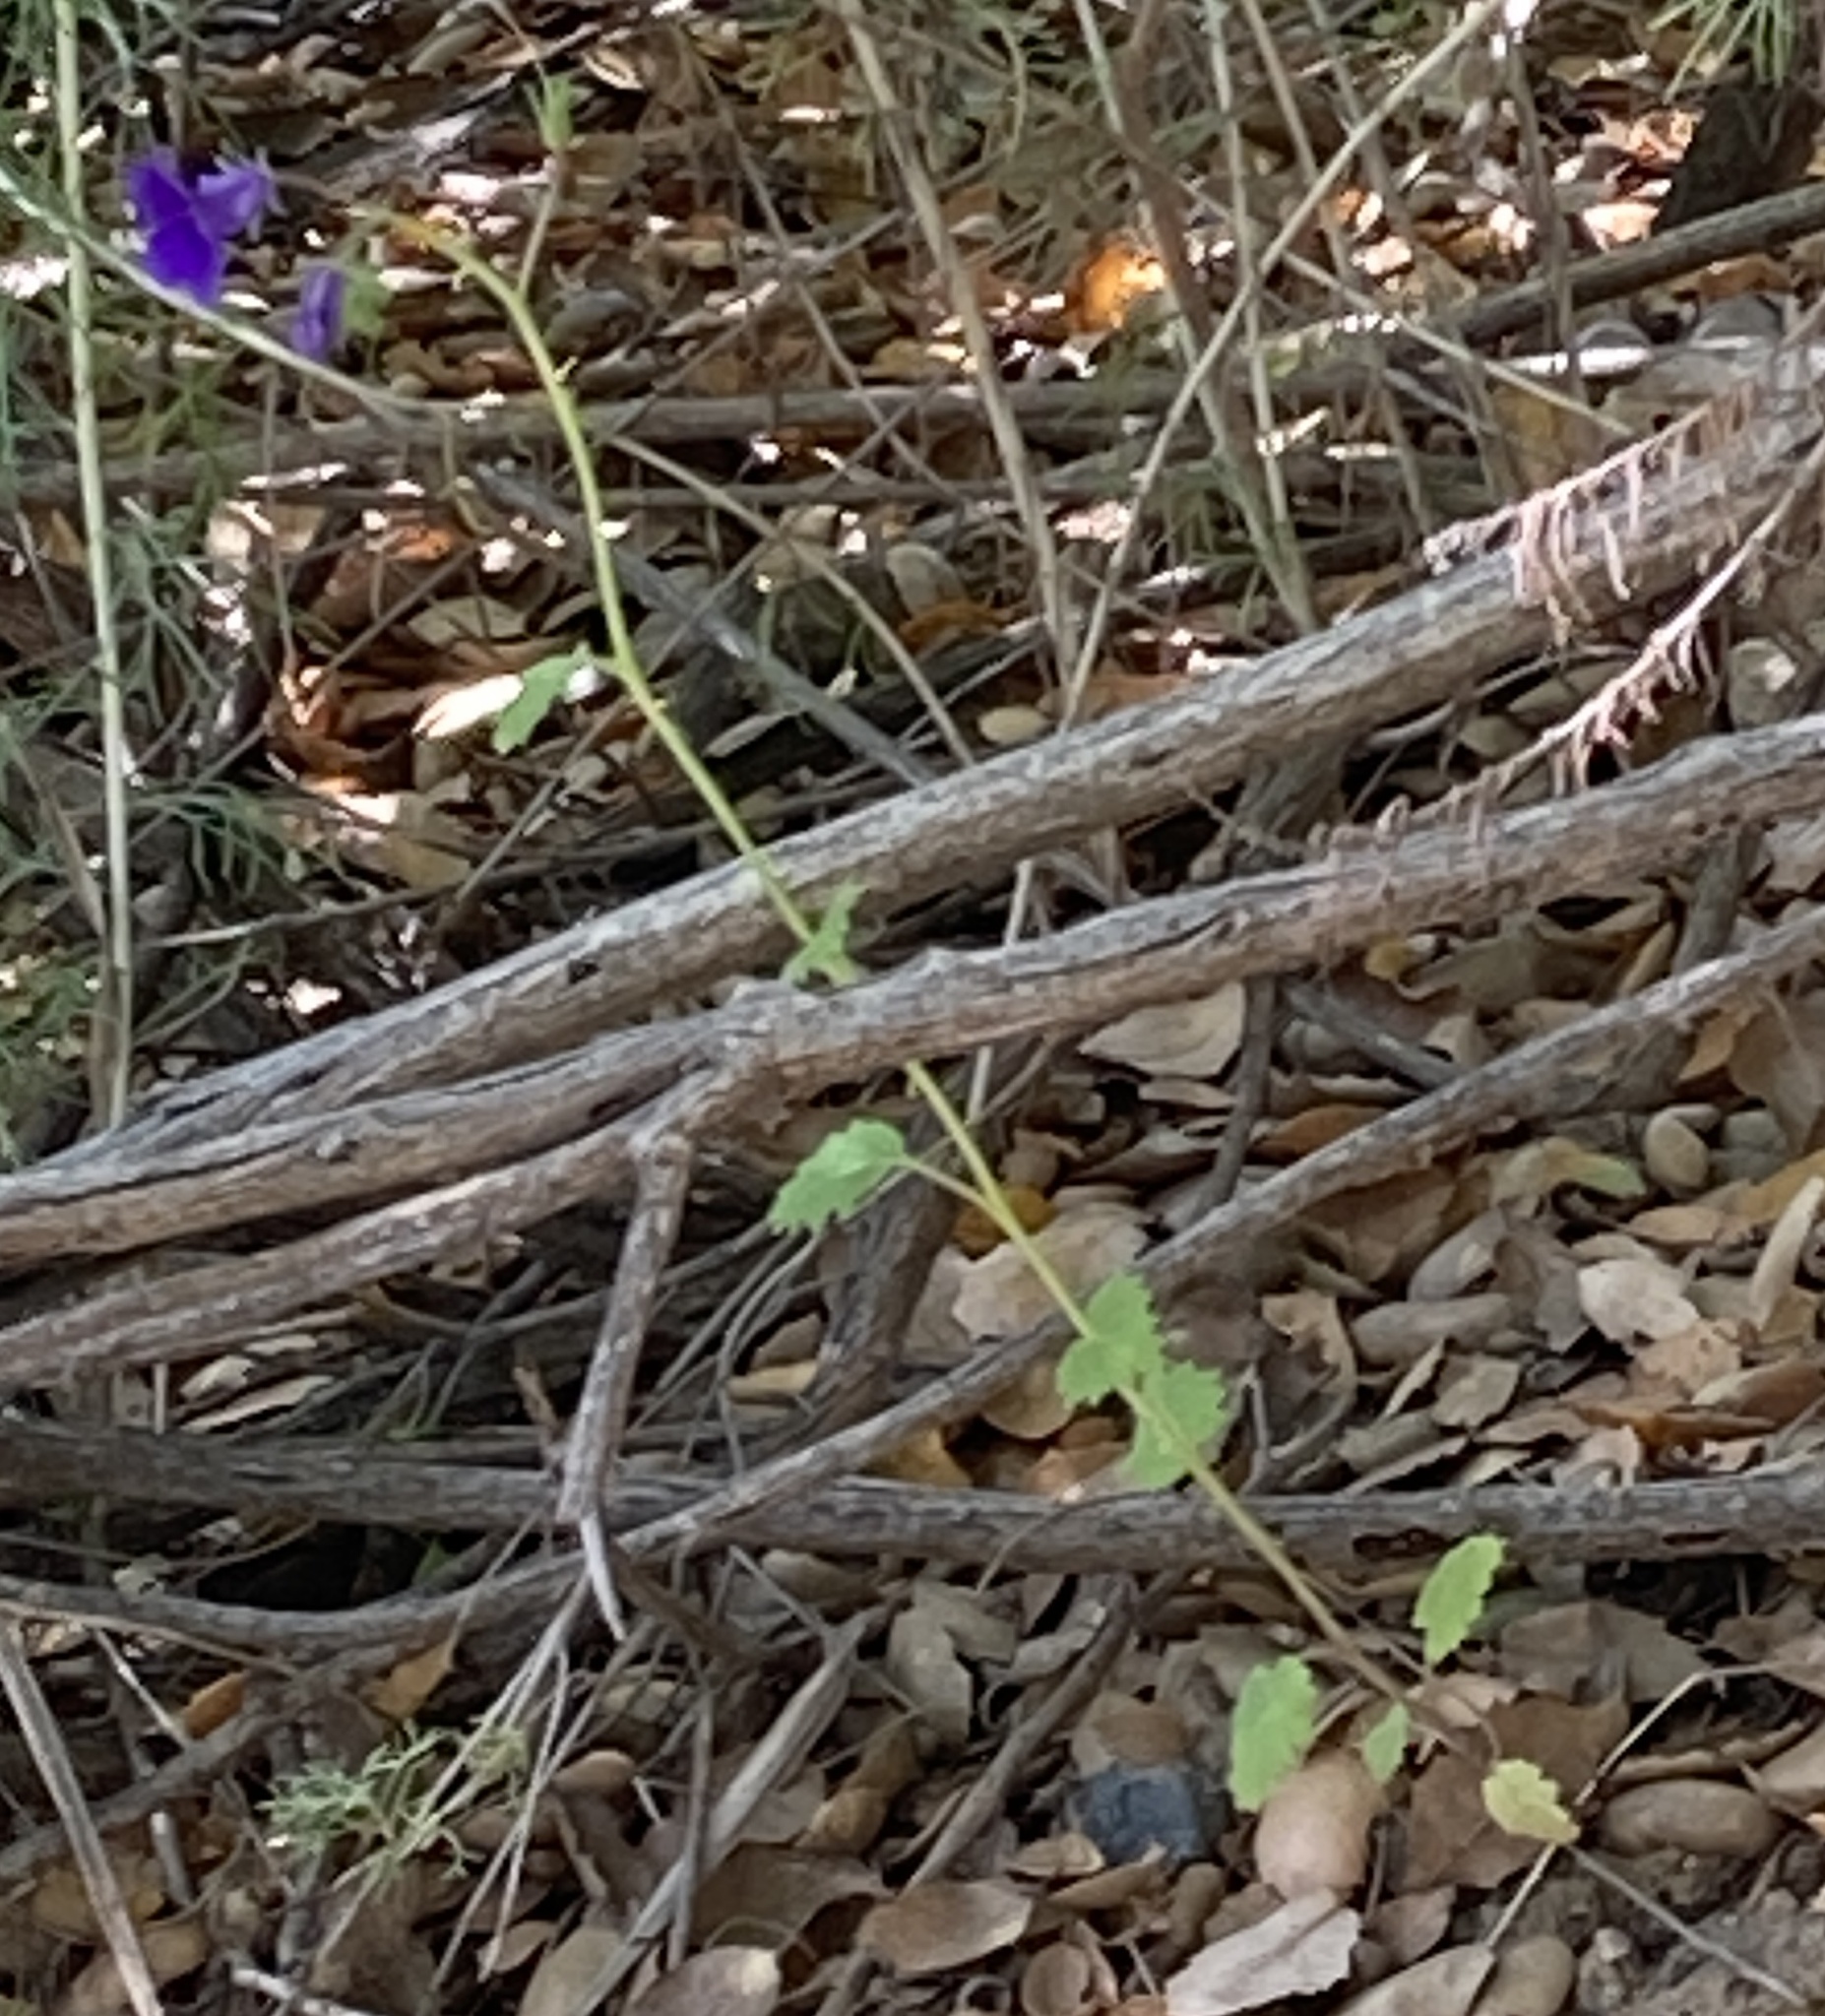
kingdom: Plantae
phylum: Tracheophyta
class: Magnoliopsida
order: Boraginales
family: Hydrophyllaceae
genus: Phacelia
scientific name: Phacelia parryi
